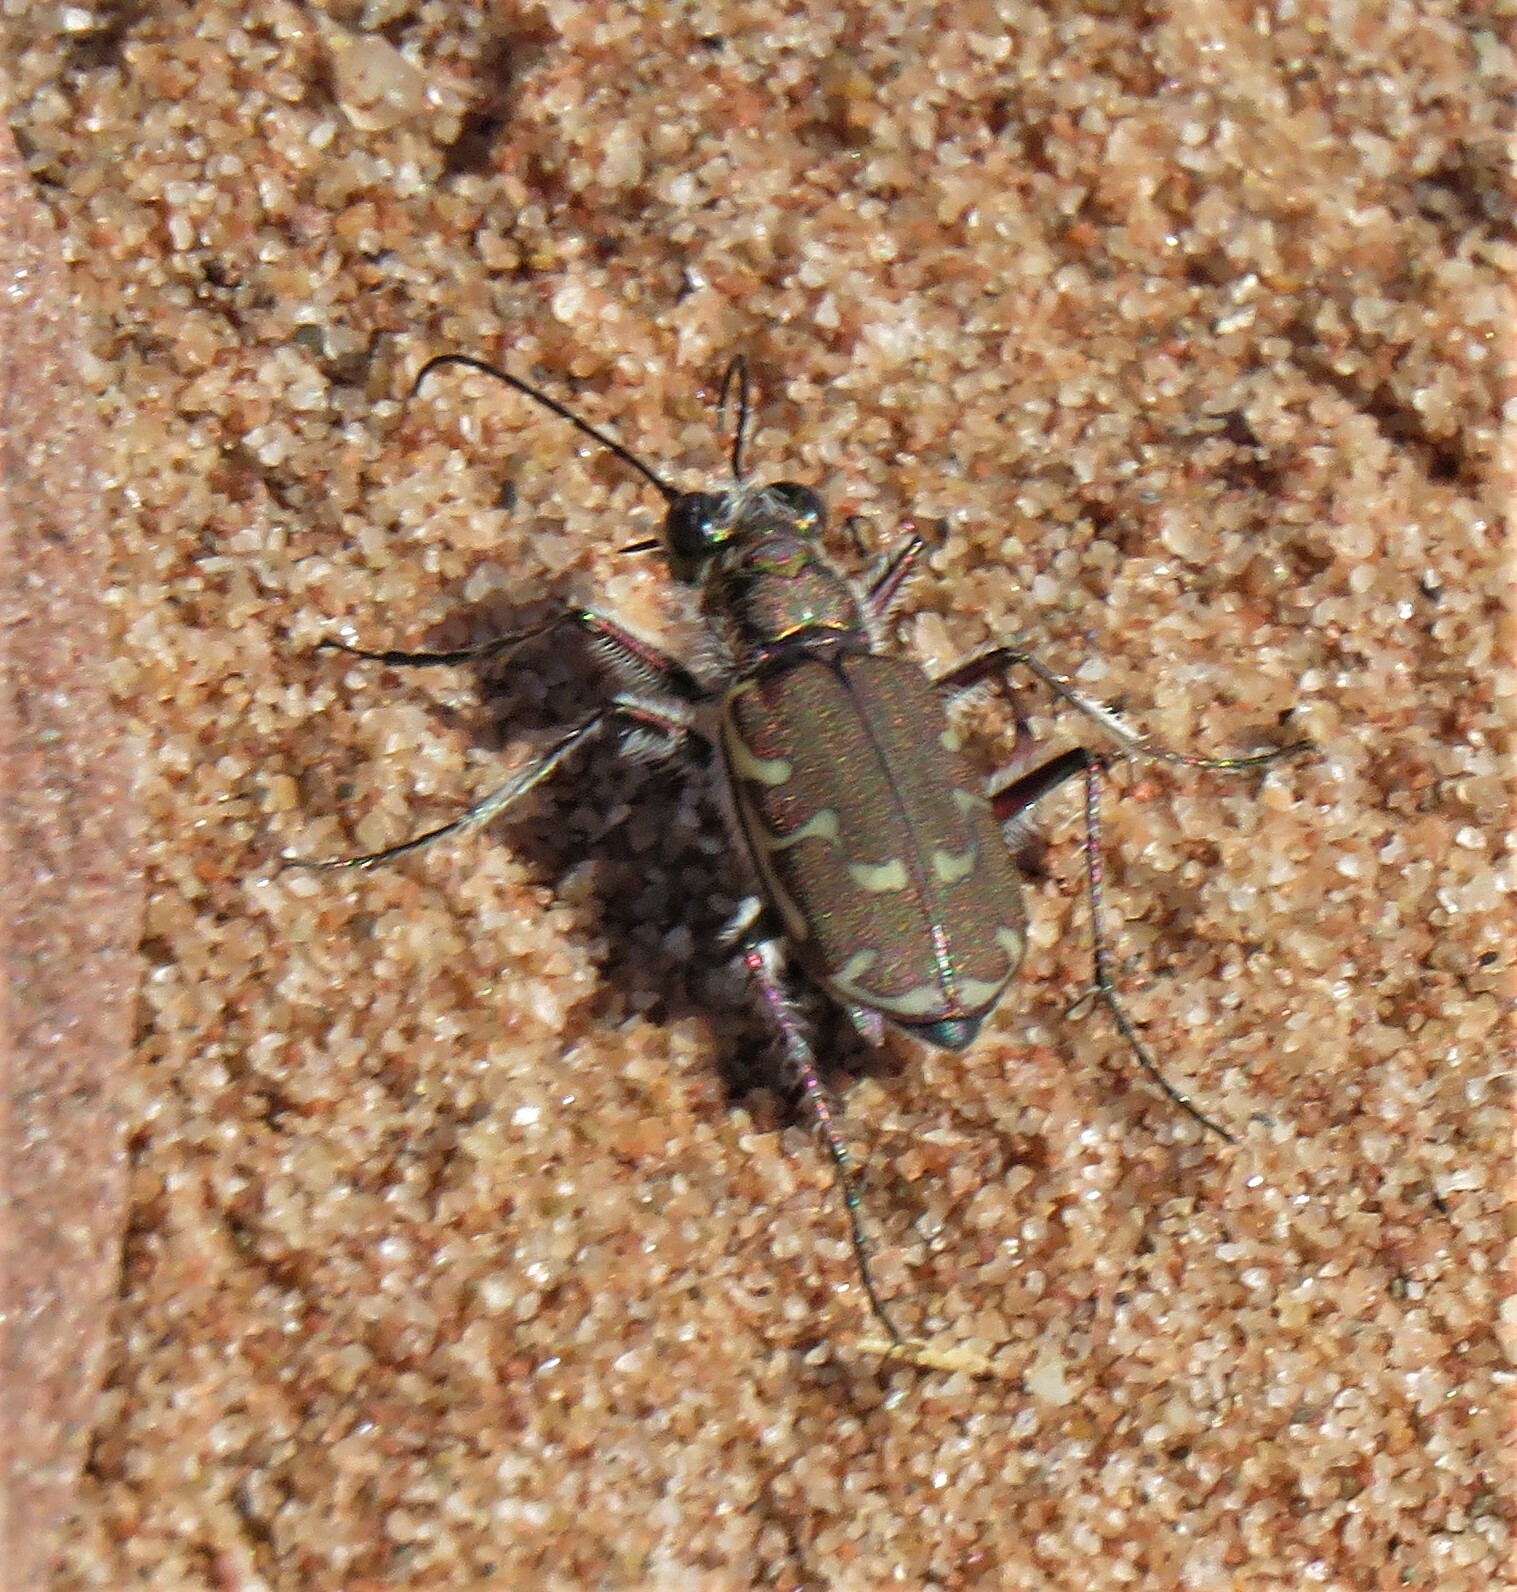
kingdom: Animalia
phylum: Arthropoda
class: Insecta
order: Coleoptera
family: Carabidae
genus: Cicindela
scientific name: Cicindela repanda
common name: Bronzed tiger beetle
